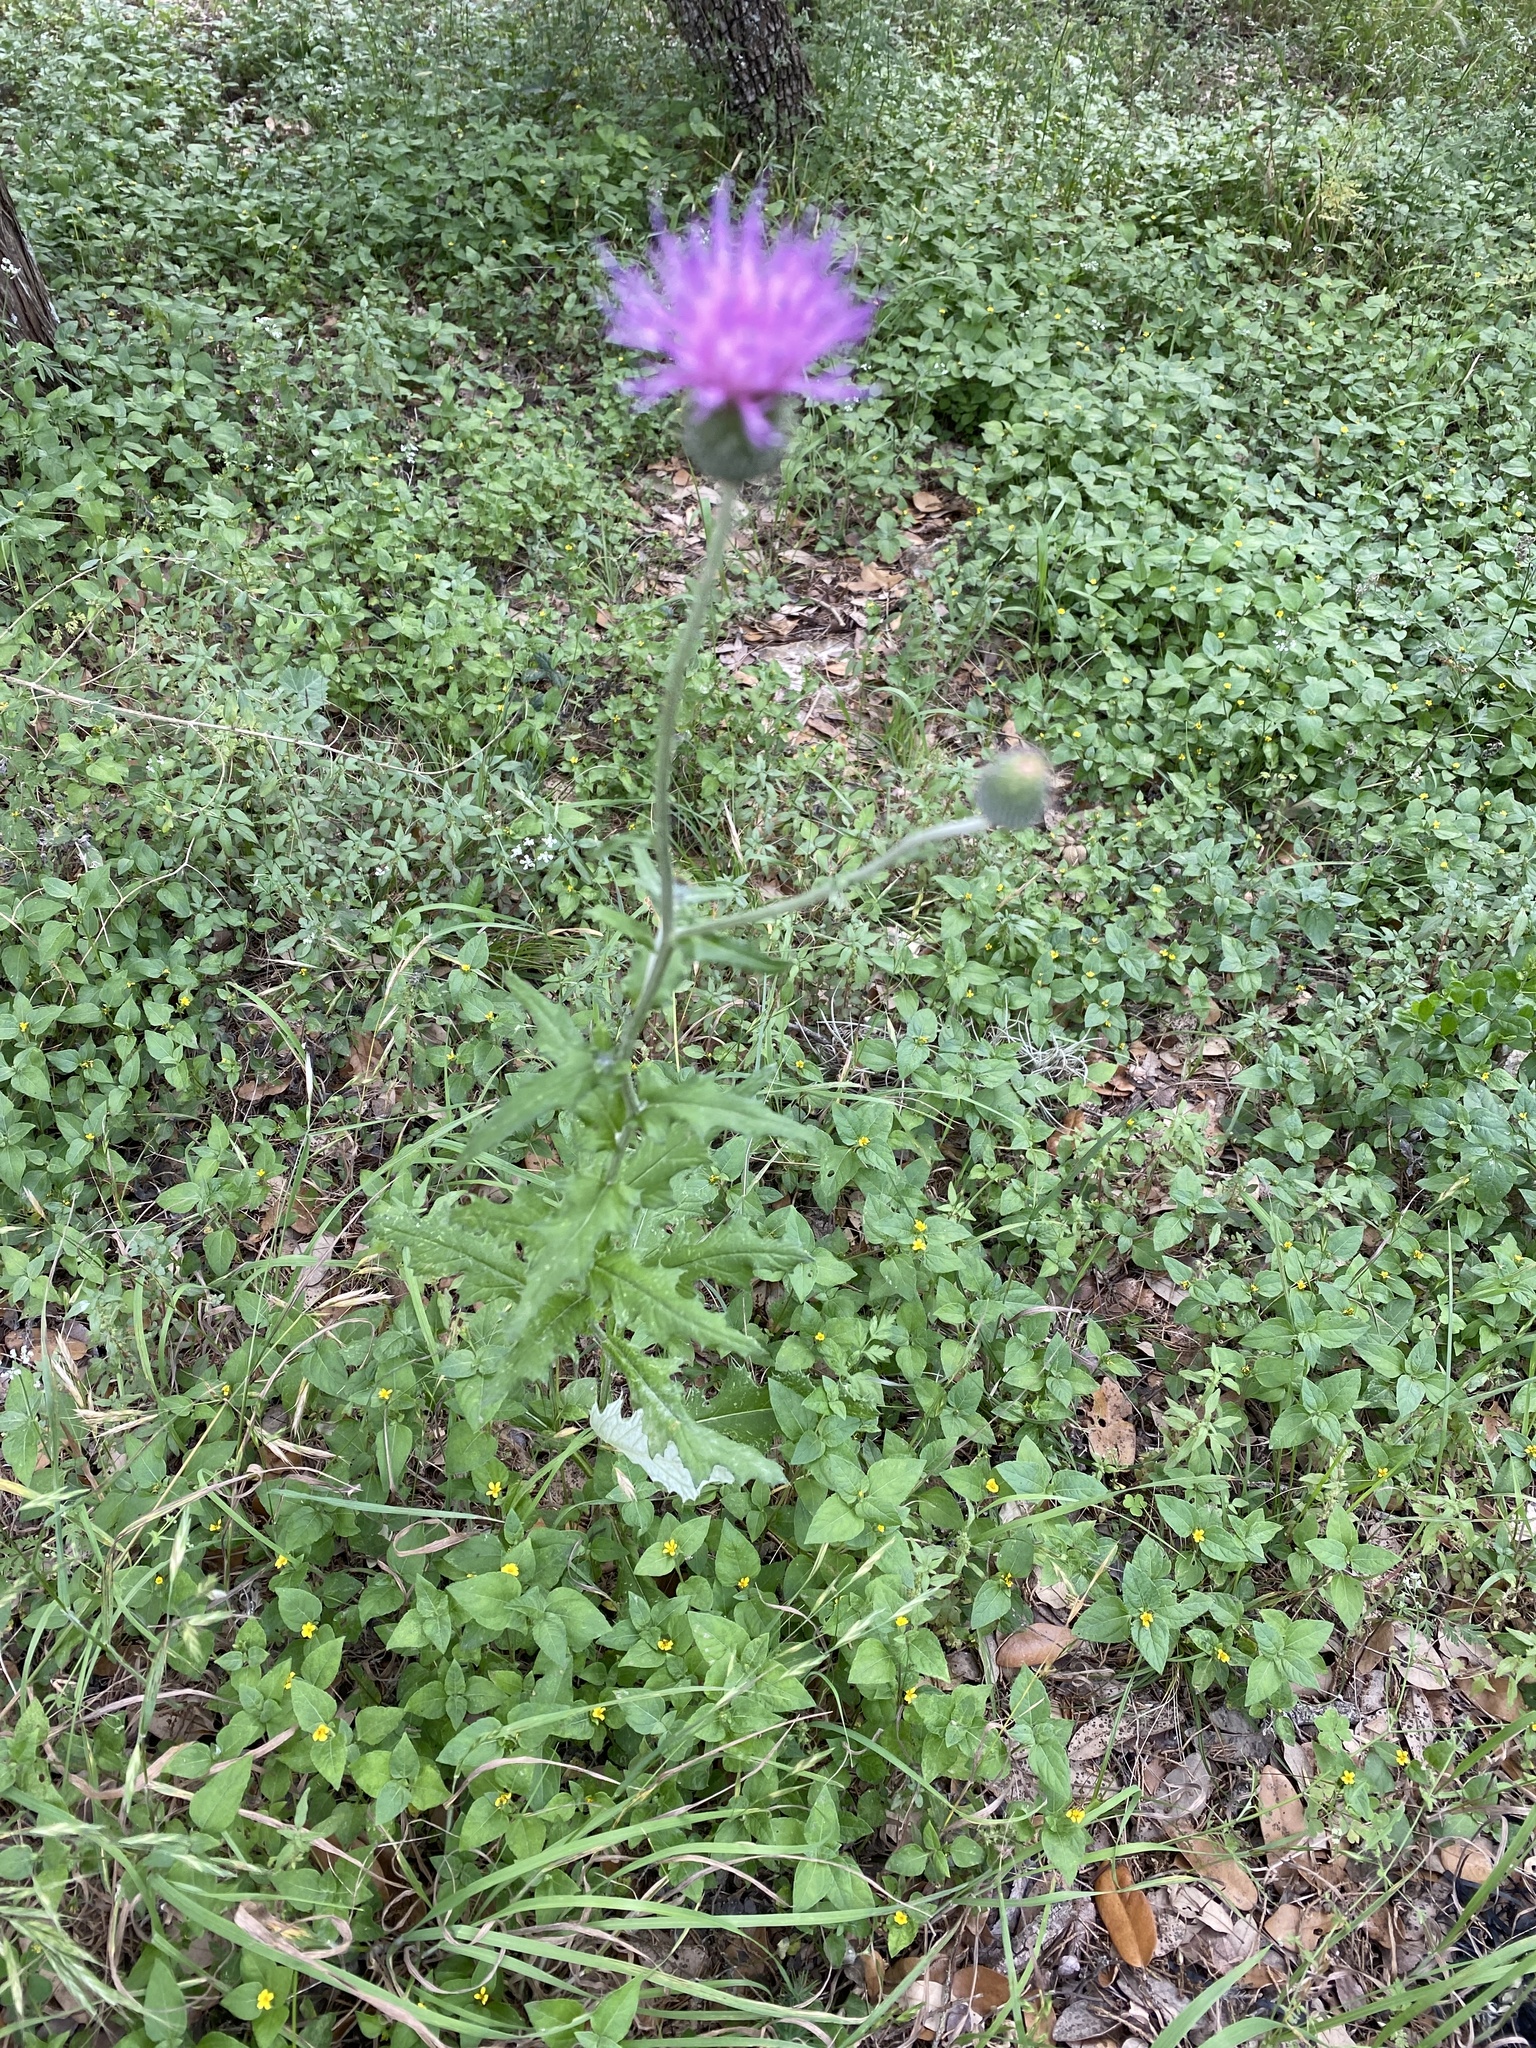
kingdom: Plantae
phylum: Tracheophyta
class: Magnoliopsida
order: Asterales
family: Asteraceae
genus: Cirsium
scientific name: Cirsium texanum
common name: Texas purple thistle
